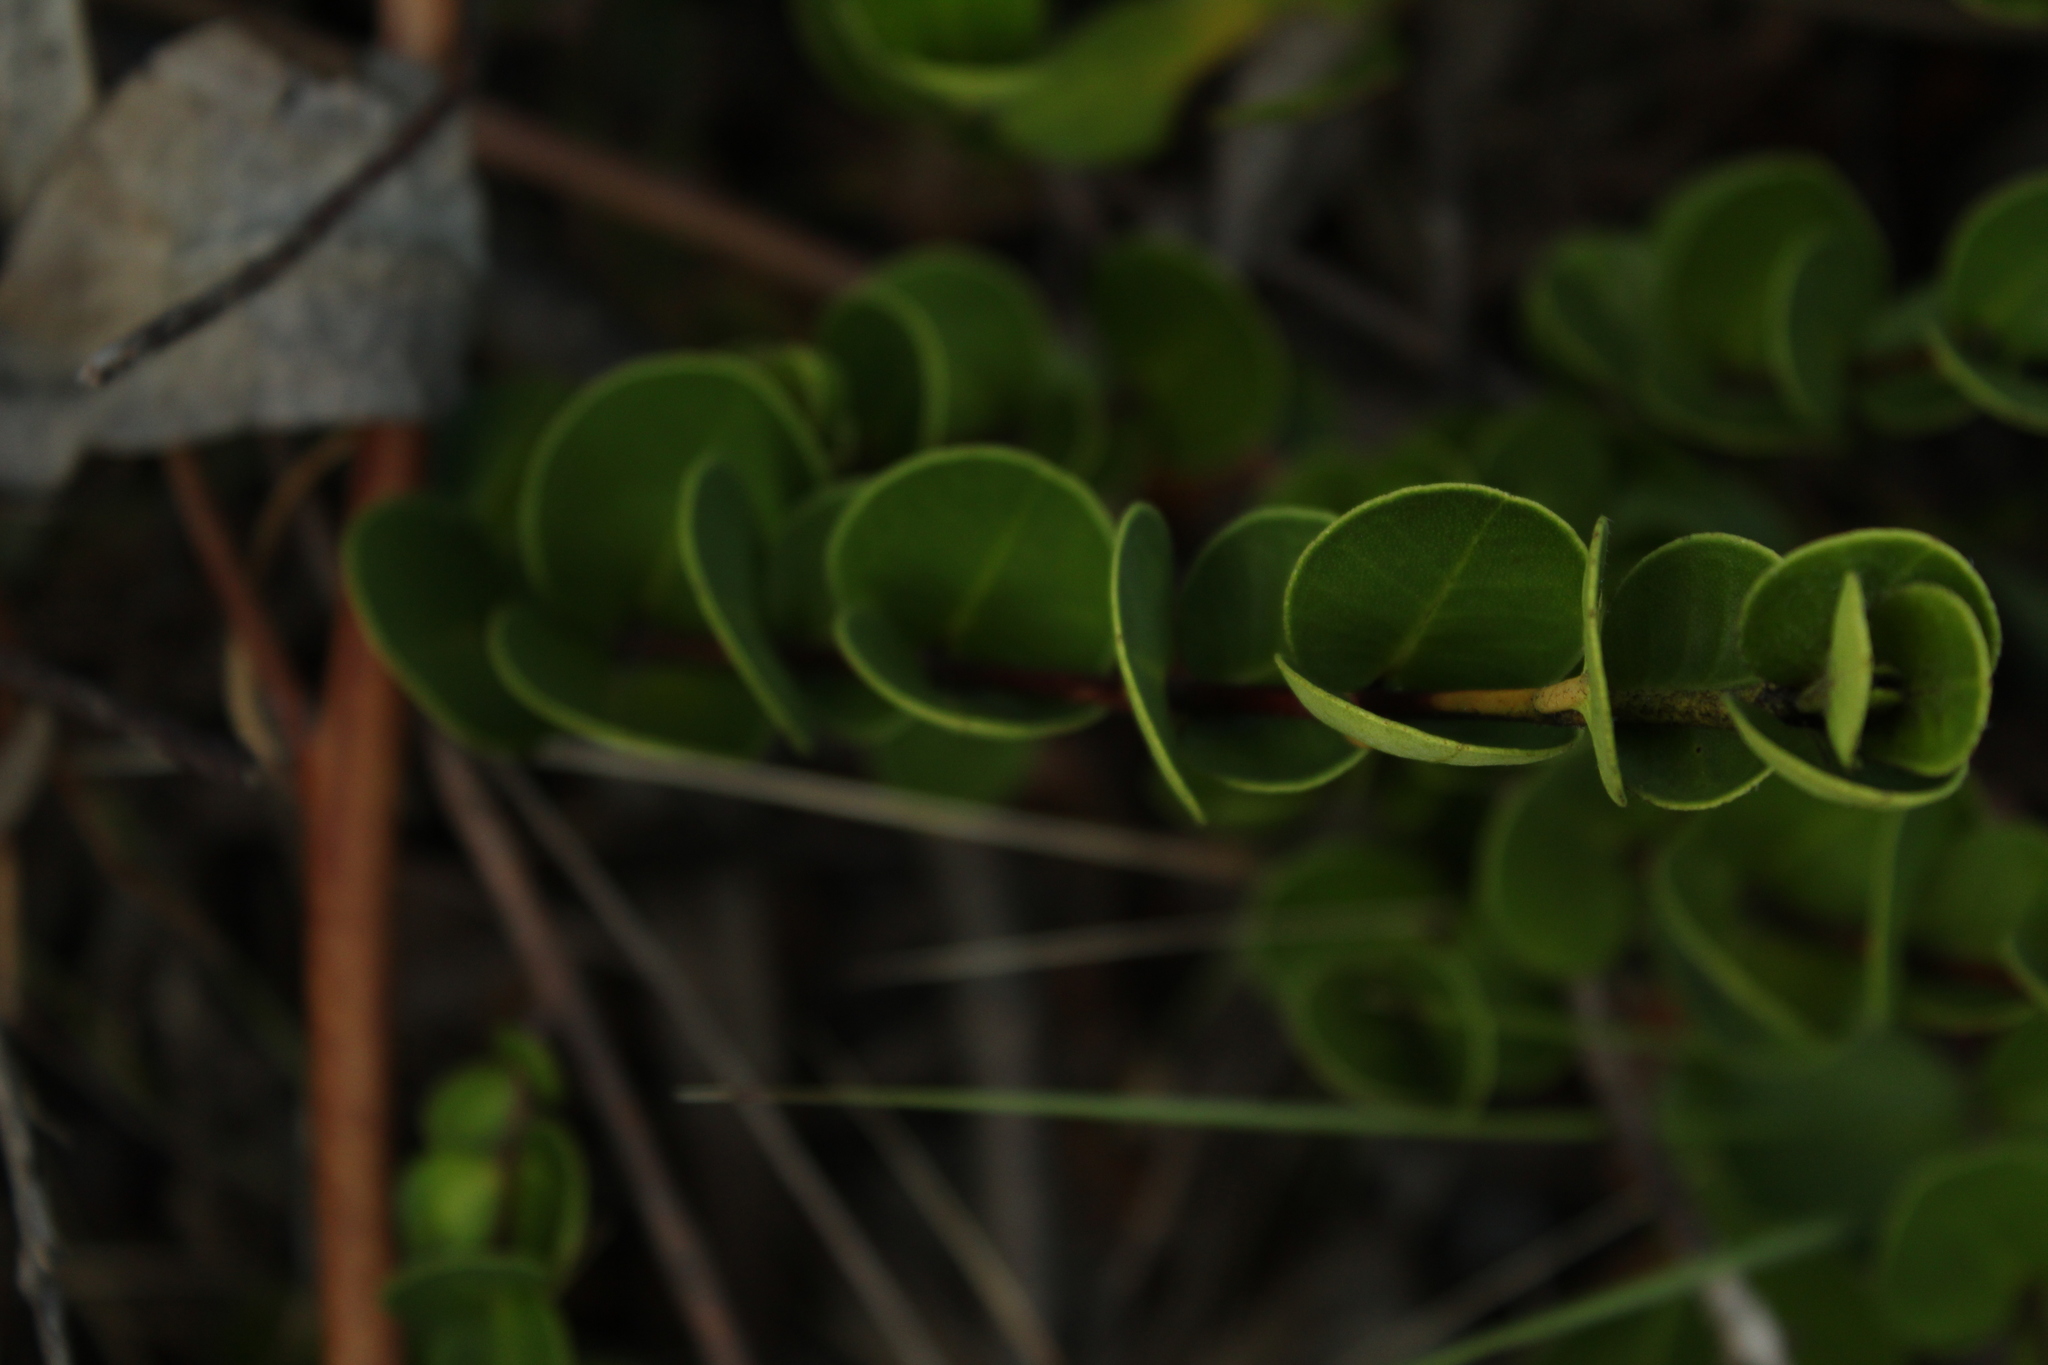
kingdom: Plantae
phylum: Tracheophyta
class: Magnoliopsida
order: Myrtales
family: Myrtaceae
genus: Myrcianthes
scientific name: Myrcianthes leucoxyla
